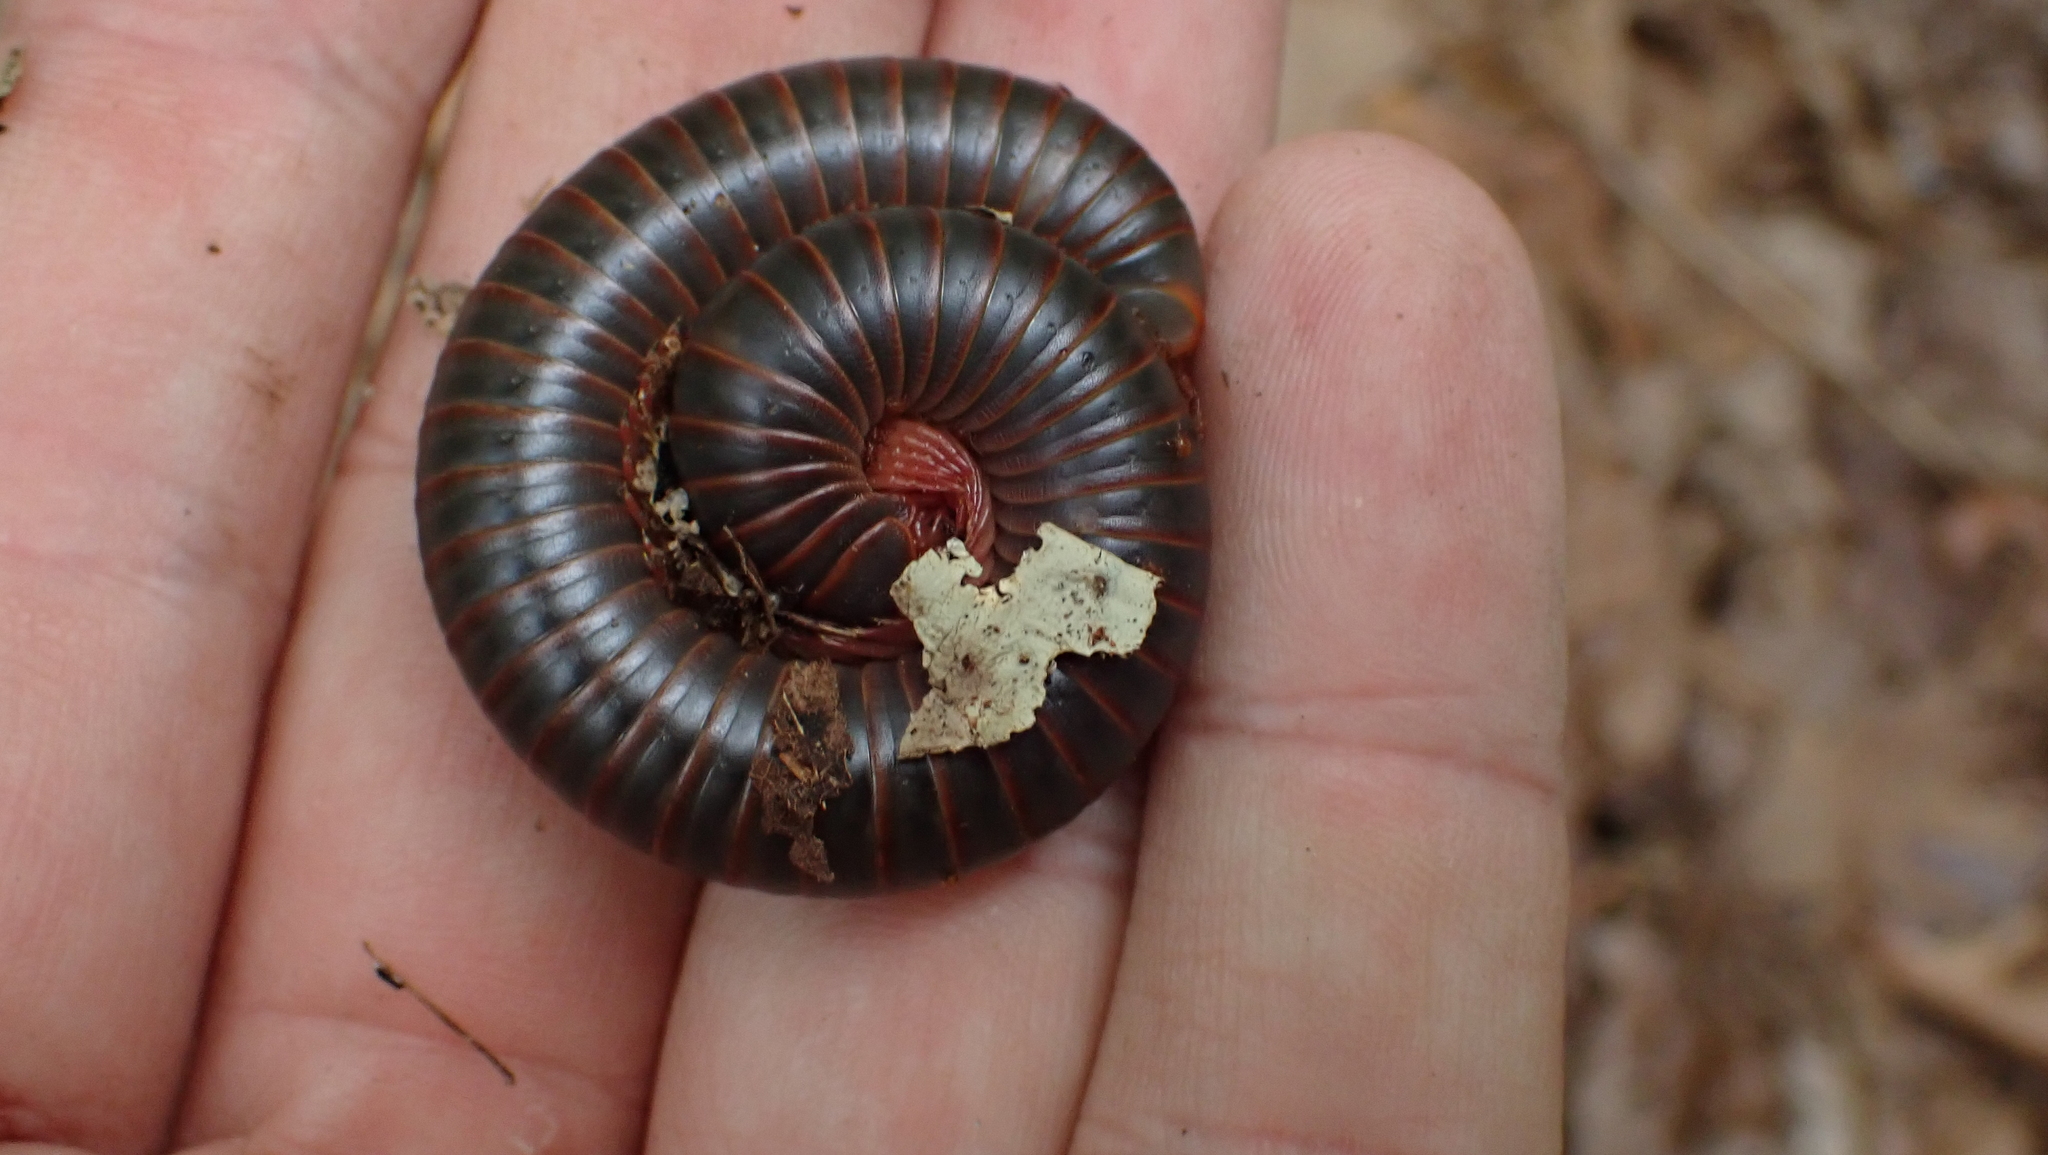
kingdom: Animalia
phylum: Arthropoda
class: Diplopoda
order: Spirobolida
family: Spirobolidae
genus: Narceus
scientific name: Narceus
